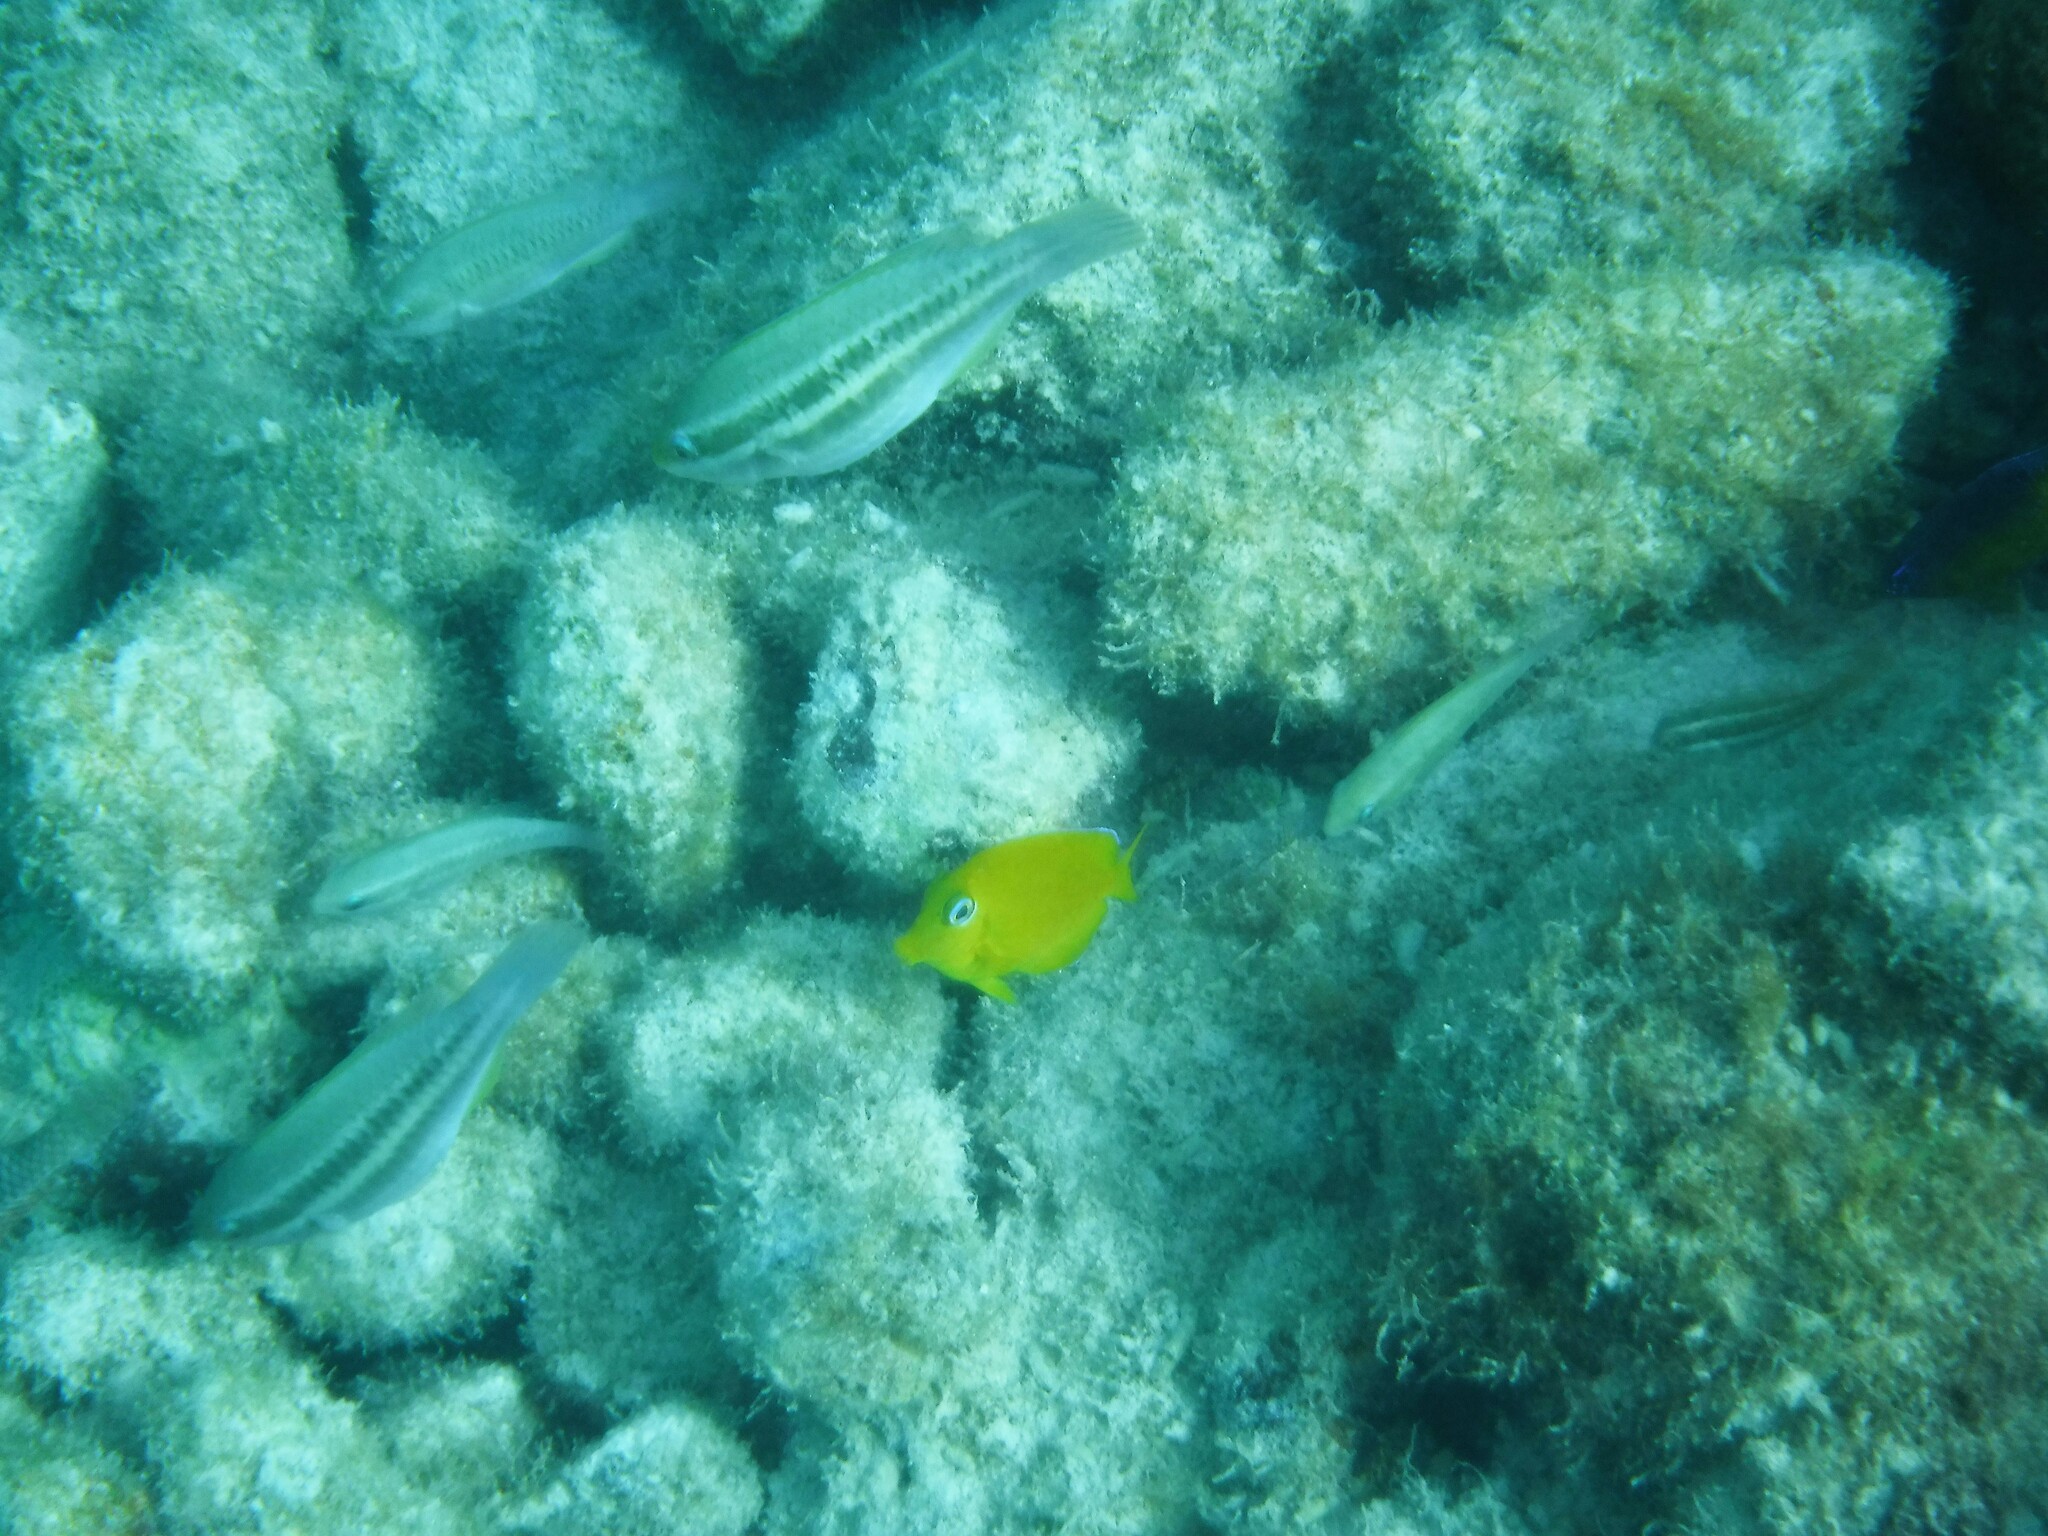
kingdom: Animalia
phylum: Chordata
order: Perciformes
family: Scaridae
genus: Scarus
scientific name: Scarus iseri
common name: Striped parrotfish
